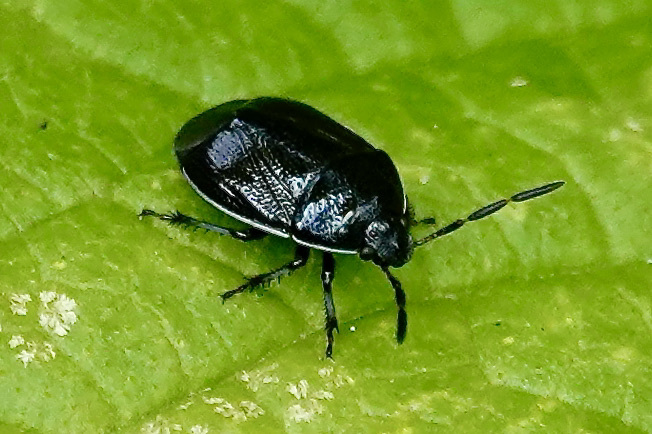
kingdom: Animalia
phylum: Arthropoda
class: Insecta
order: Hemiptera
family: Cydnidae
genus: Sehirus
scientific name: Sehirus cinctus
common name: White-margined burrower bug
